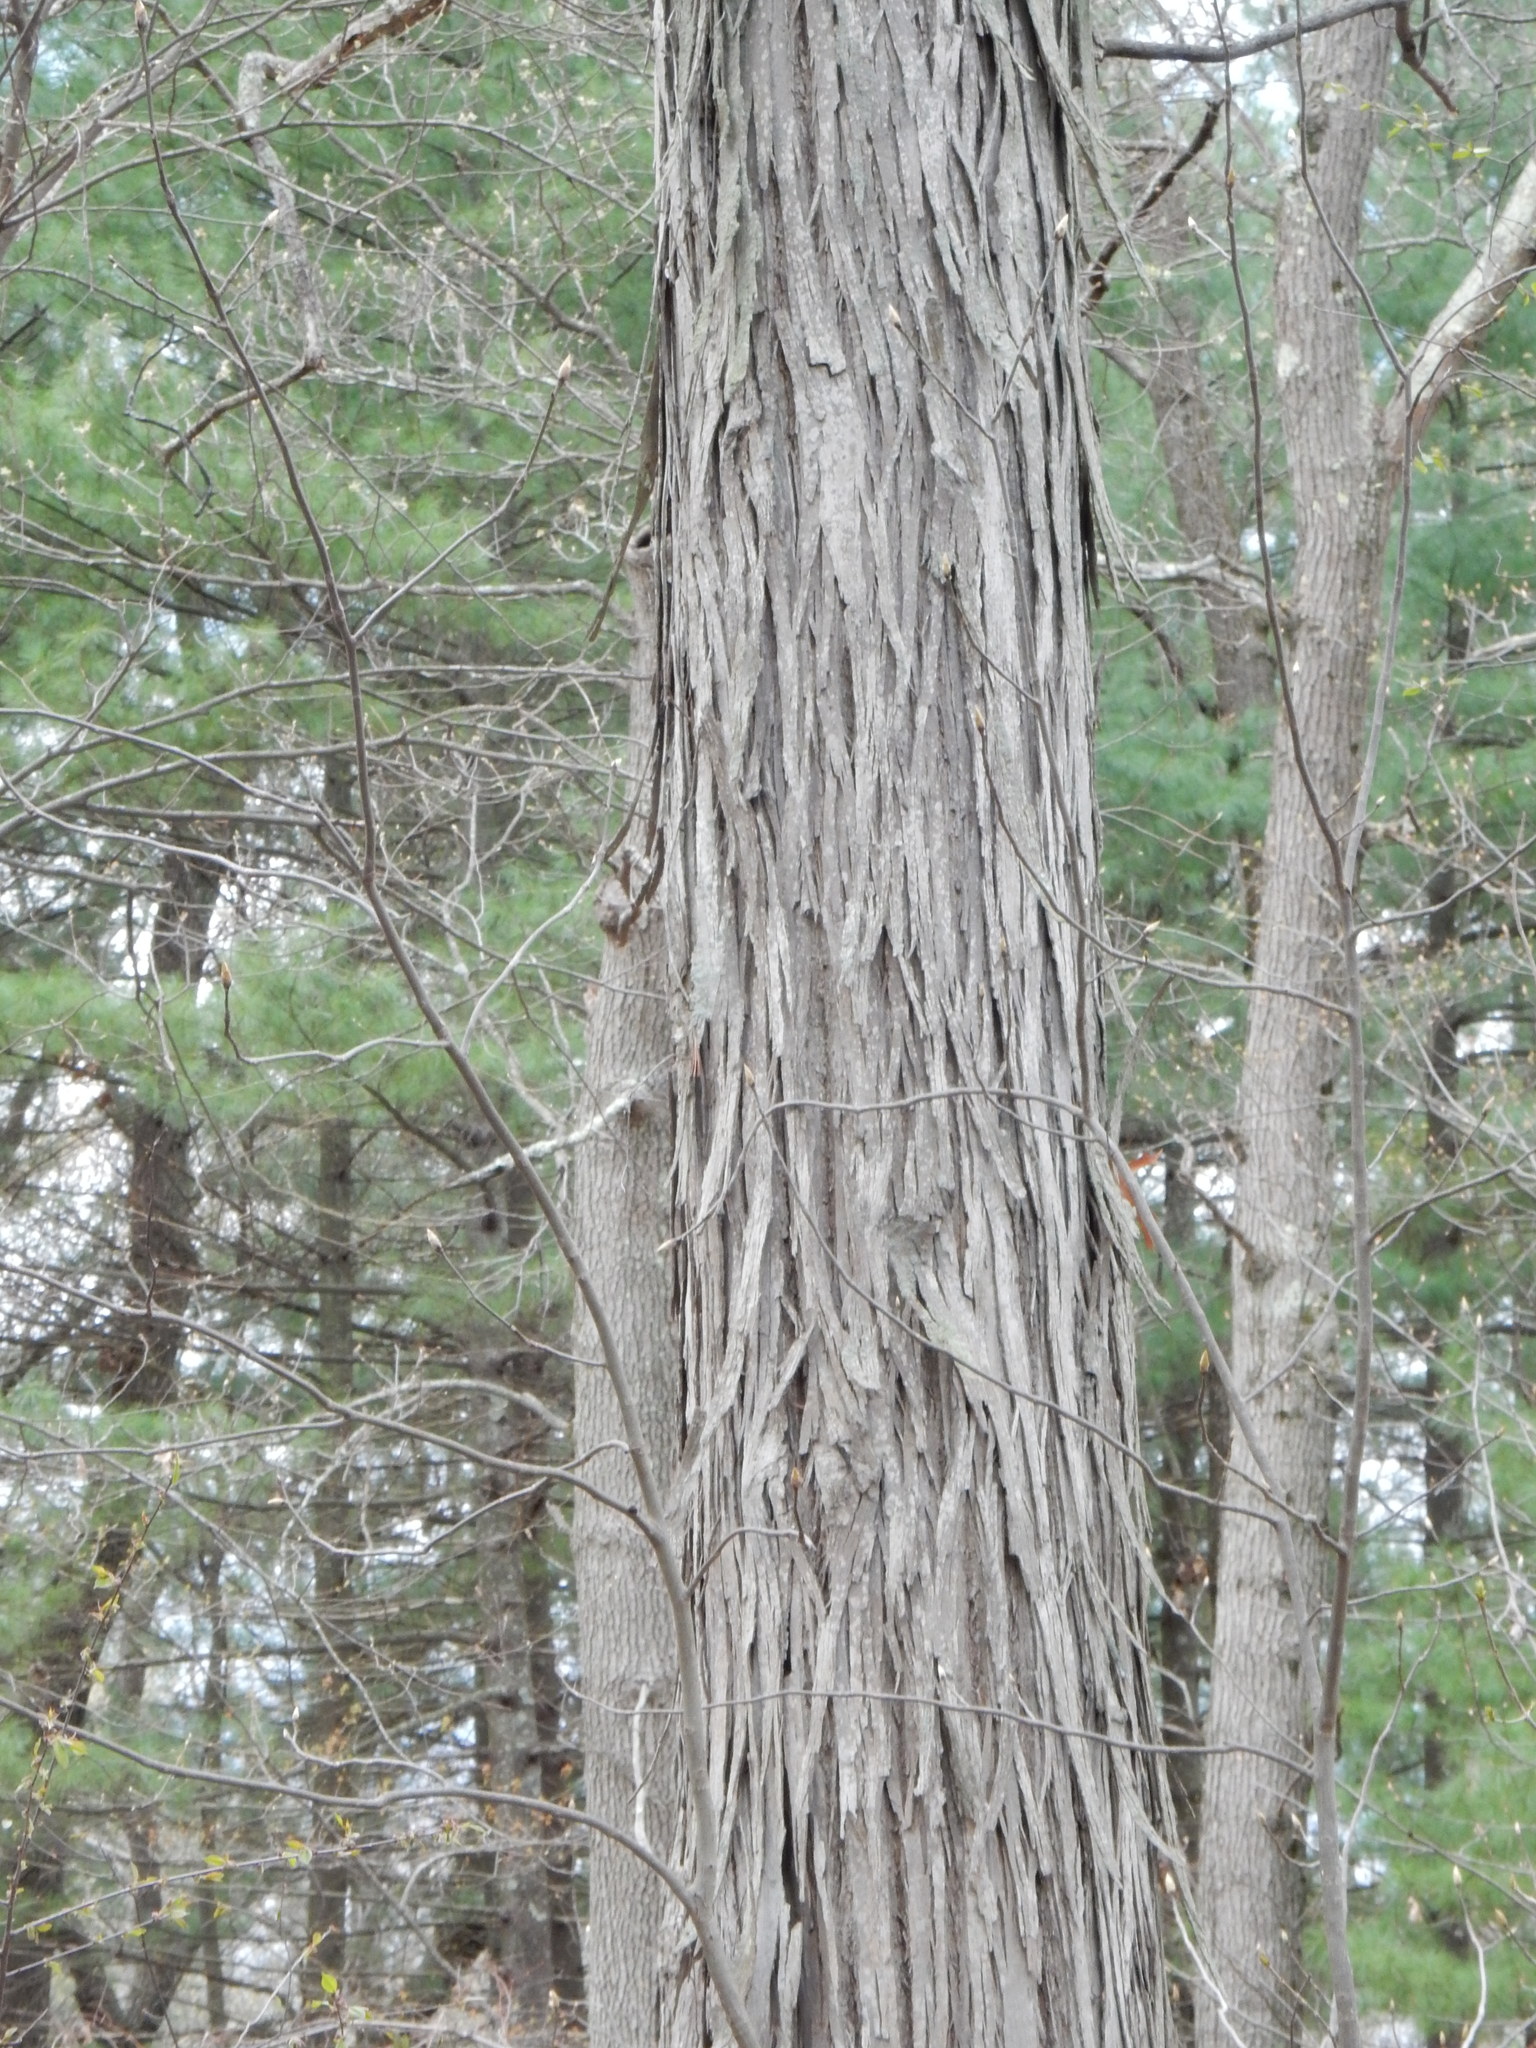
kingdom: Plantae
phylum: Tracheophyta
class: Magnoliopsida
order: Fagales
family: Juglandaceae
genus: Carya
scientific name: Carya ovata
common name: Shagbark hickory
